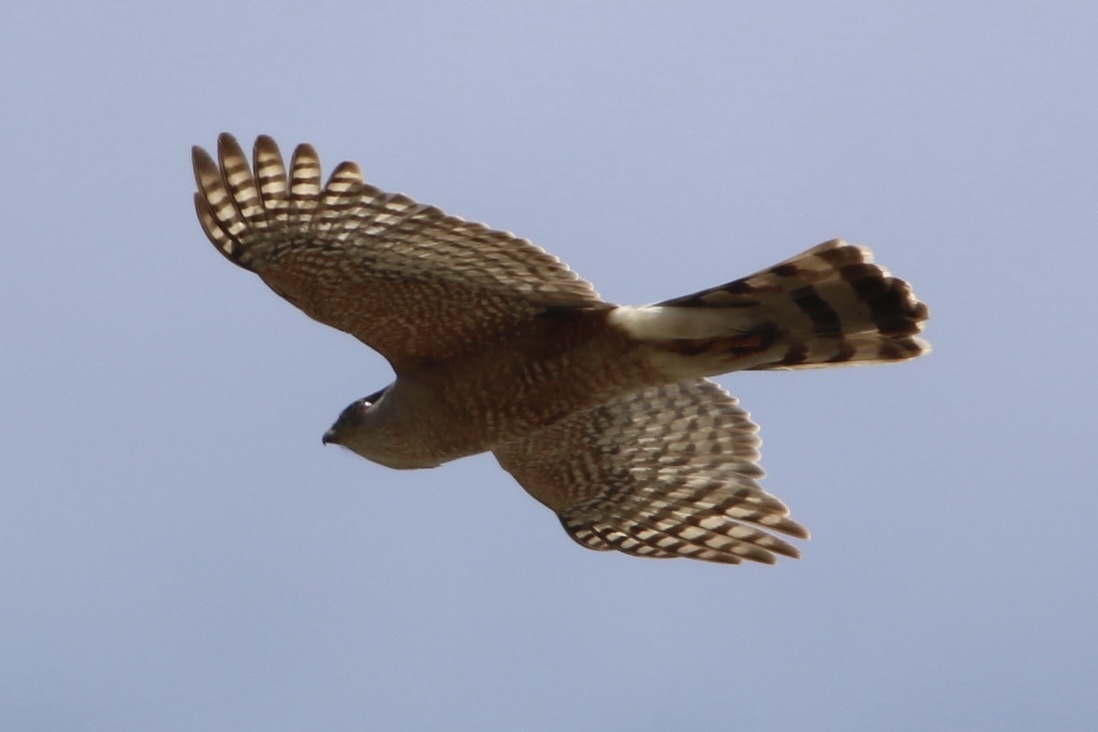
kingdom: Animalia
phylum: Chordata
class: Aves
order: Accipitriformes
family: Accipitridae
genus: Accipiter
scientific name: Accipiter cooperii
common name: Cooper's hawk
